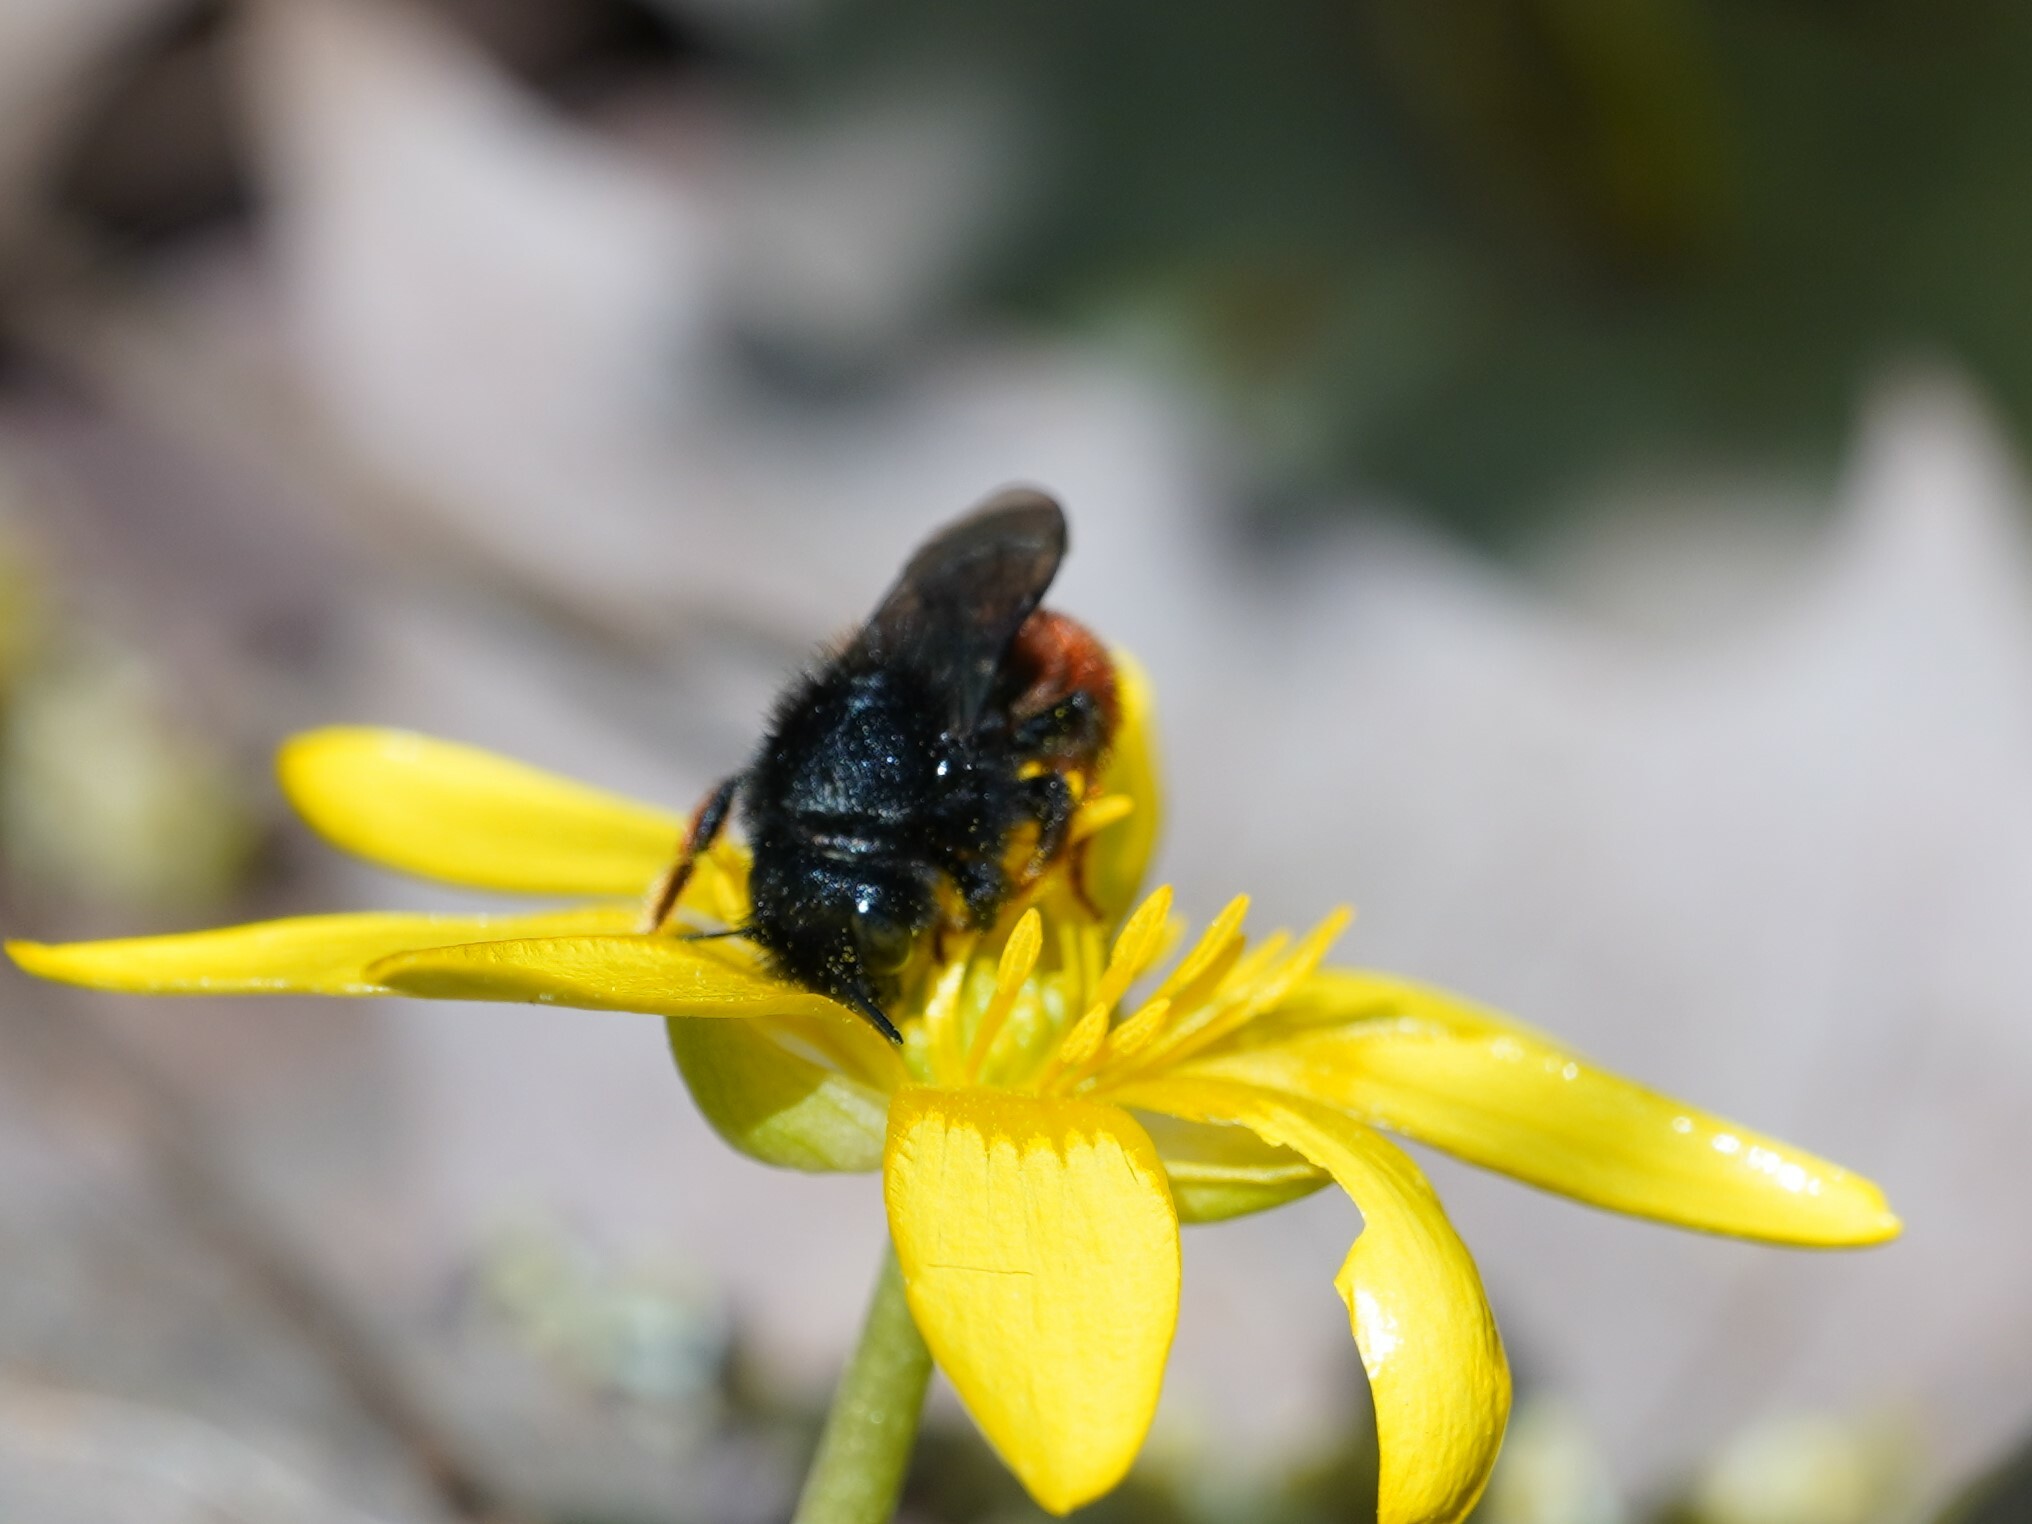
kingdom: Animalia
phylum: Arthropoda
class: Insecta
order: Hymenoptera
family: Megachilidae
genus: Osmia
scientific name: Osmia bicolor
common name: Red-tailed mason bee
